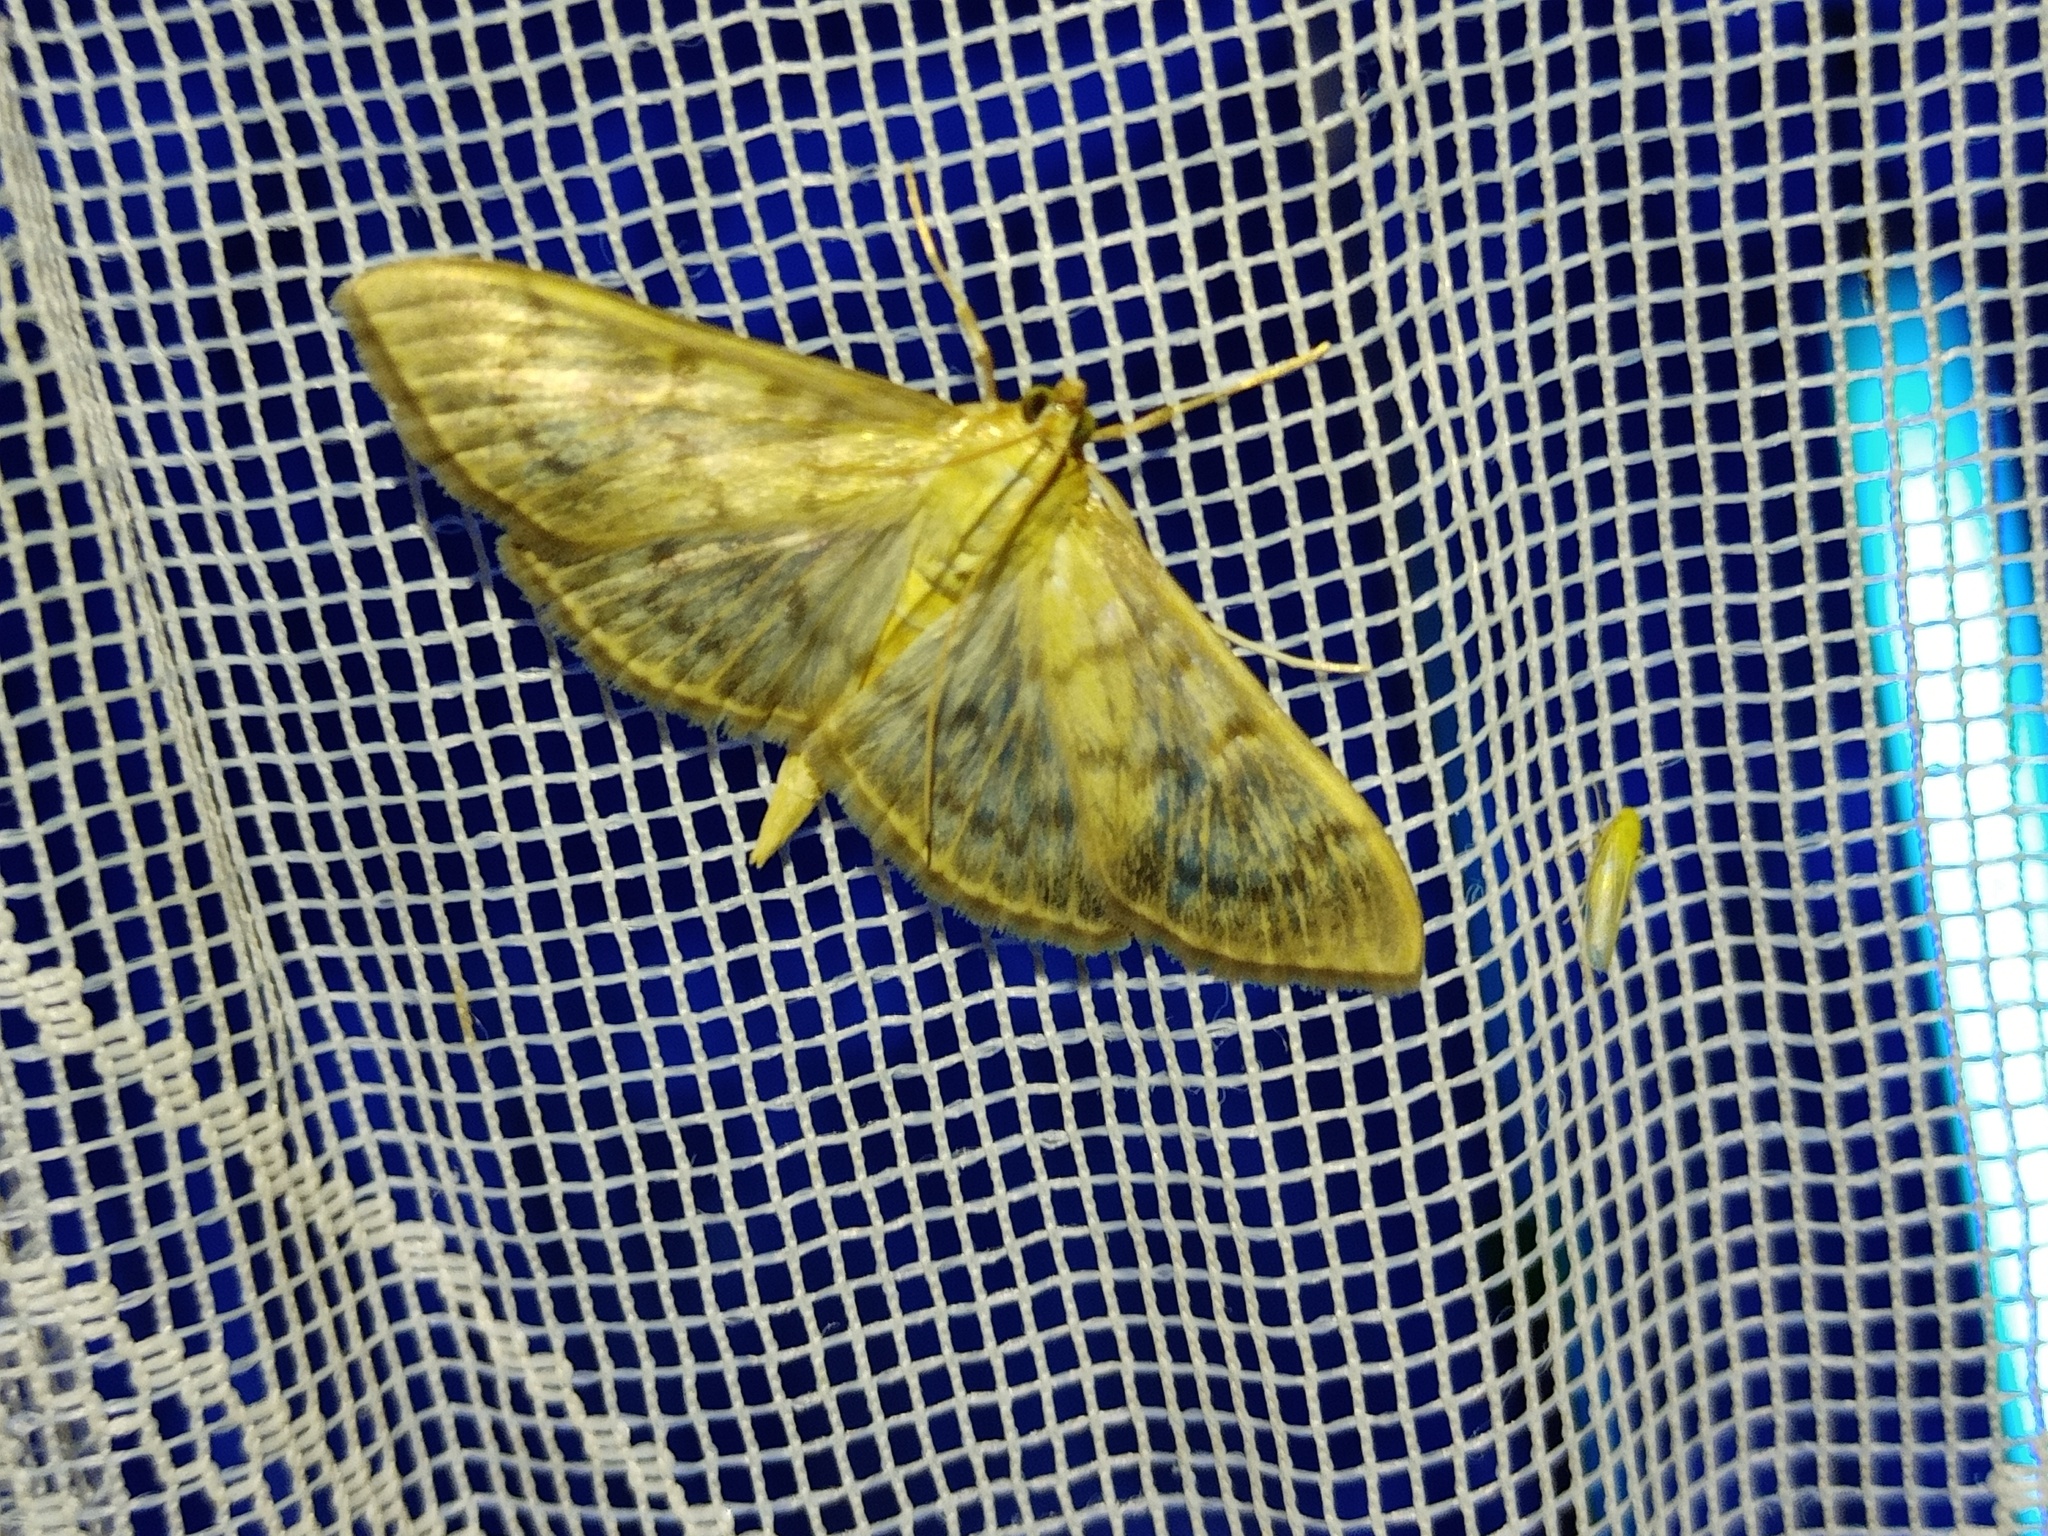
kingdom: Animalia
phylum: Arthropoda
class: Insecta
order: Lepidoptera
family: Crambidae
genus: Patania
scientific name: Patania ruralis
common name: Mother of pearl
